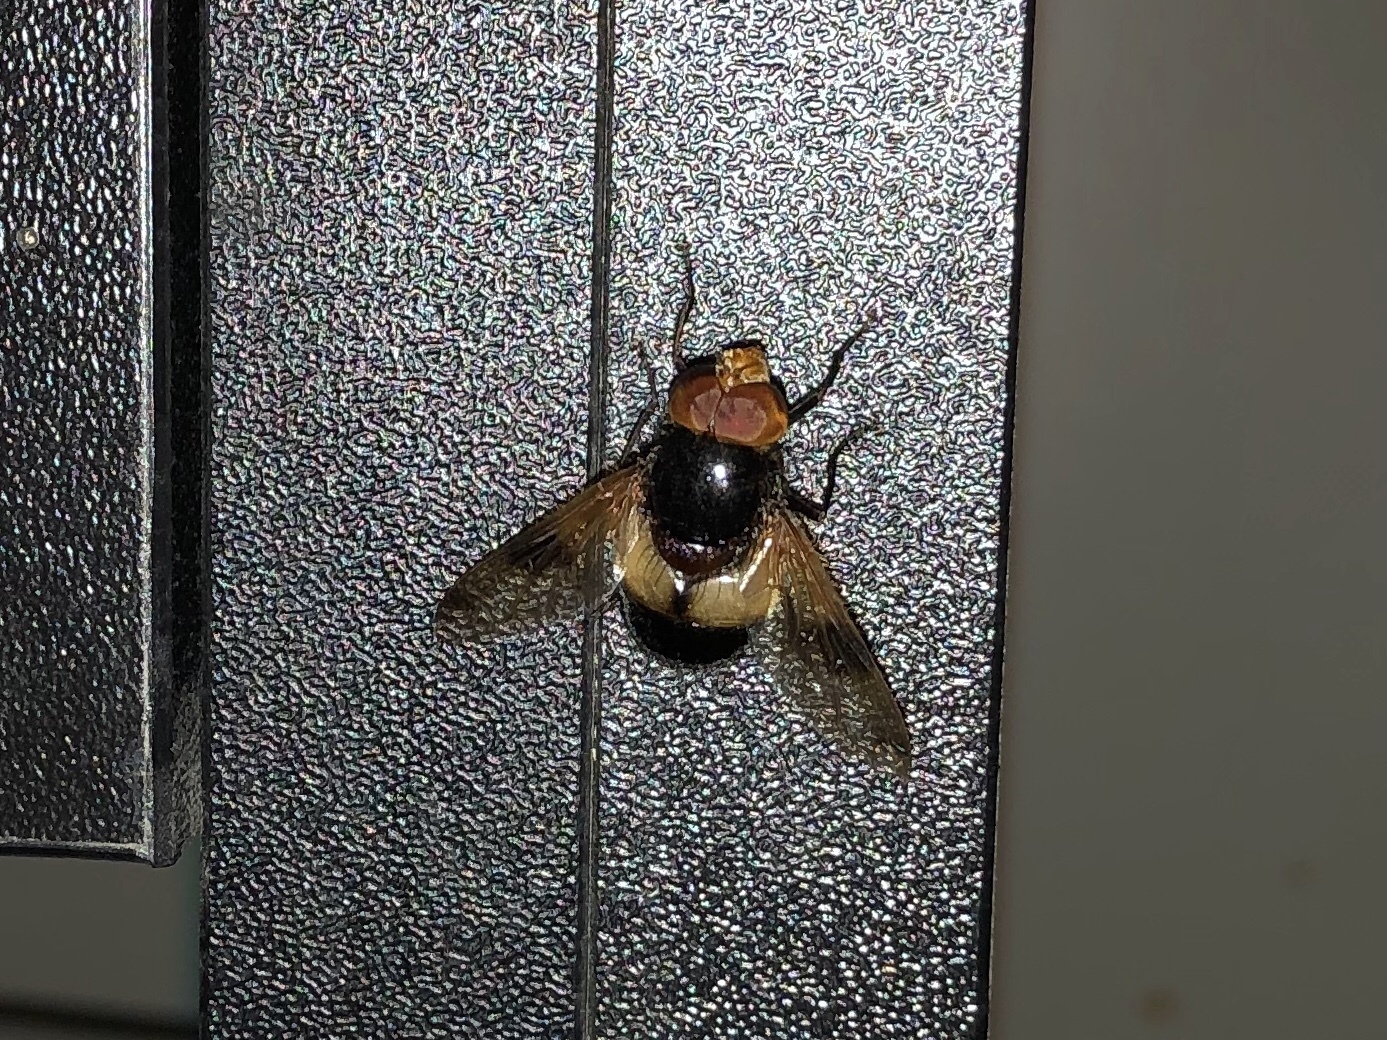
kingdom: Animalia
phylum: Arthropoda
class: Insecta
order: Diptera
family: Syrphidae
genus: Volucella
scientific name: Volucella pellucens
